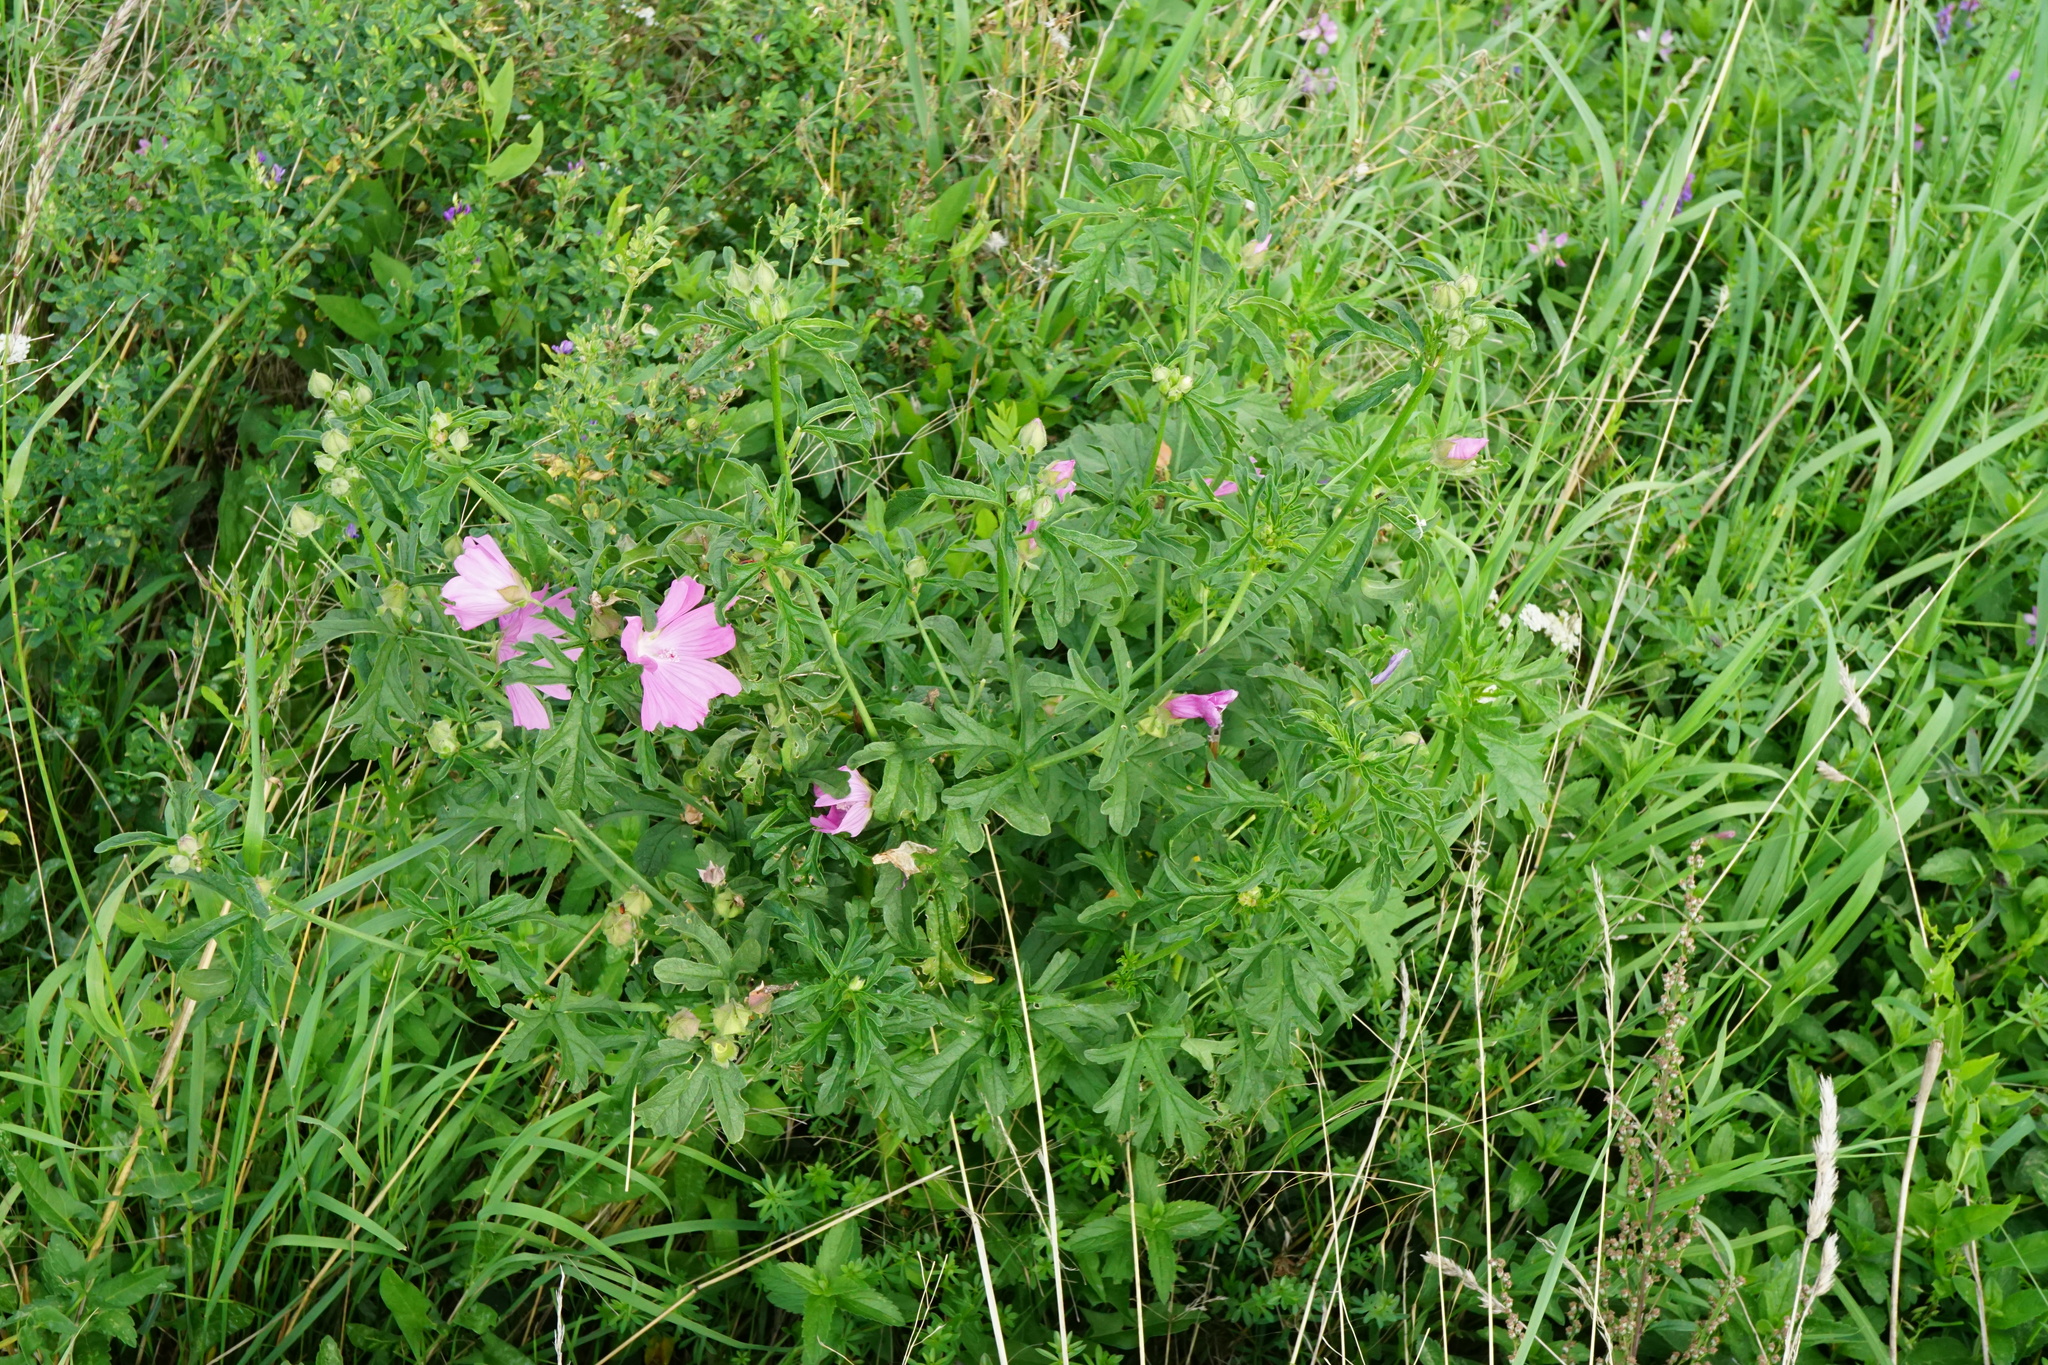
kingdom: Plantae
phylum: Tracheophyta
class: Magnoliopsida
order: Malvales
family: Malvaceae
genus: Malva
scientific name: Malva alcea
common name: Greater musk-mallow
